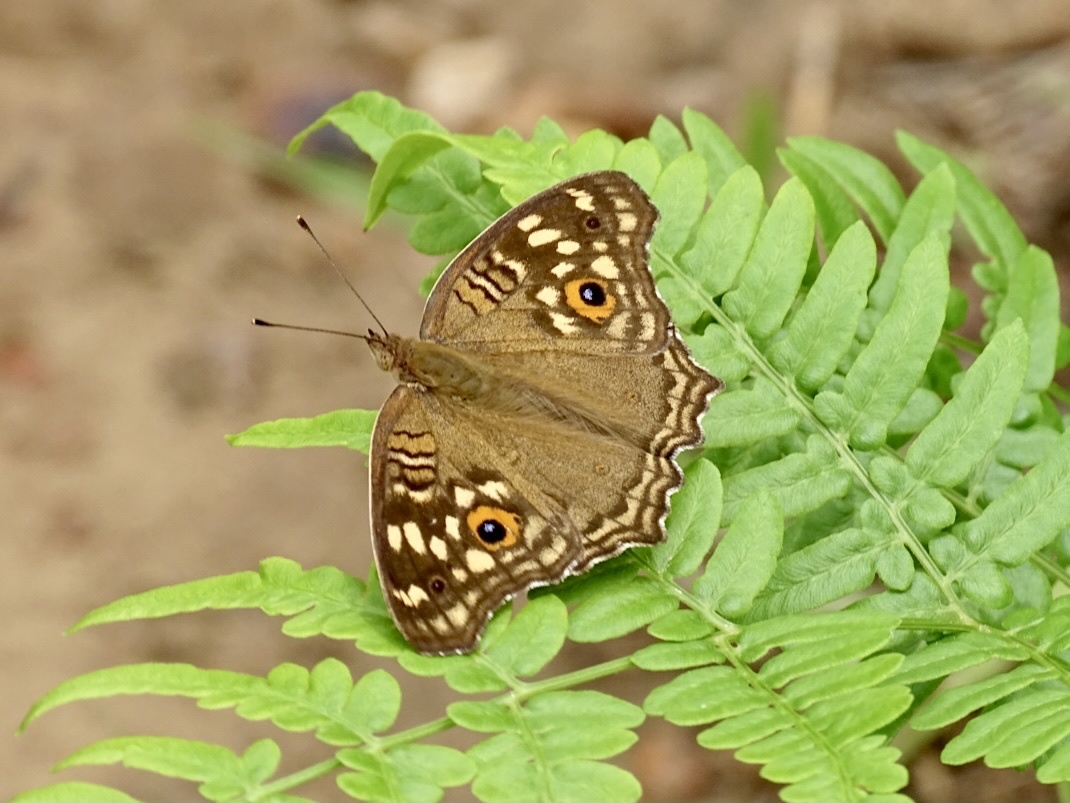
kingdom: Animalia
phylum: Arthropoda
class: Insecta
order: Lepidoptera
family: Nymphalidae
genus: Junonia
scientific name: Junonia lemonias
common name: Lemon pansy
